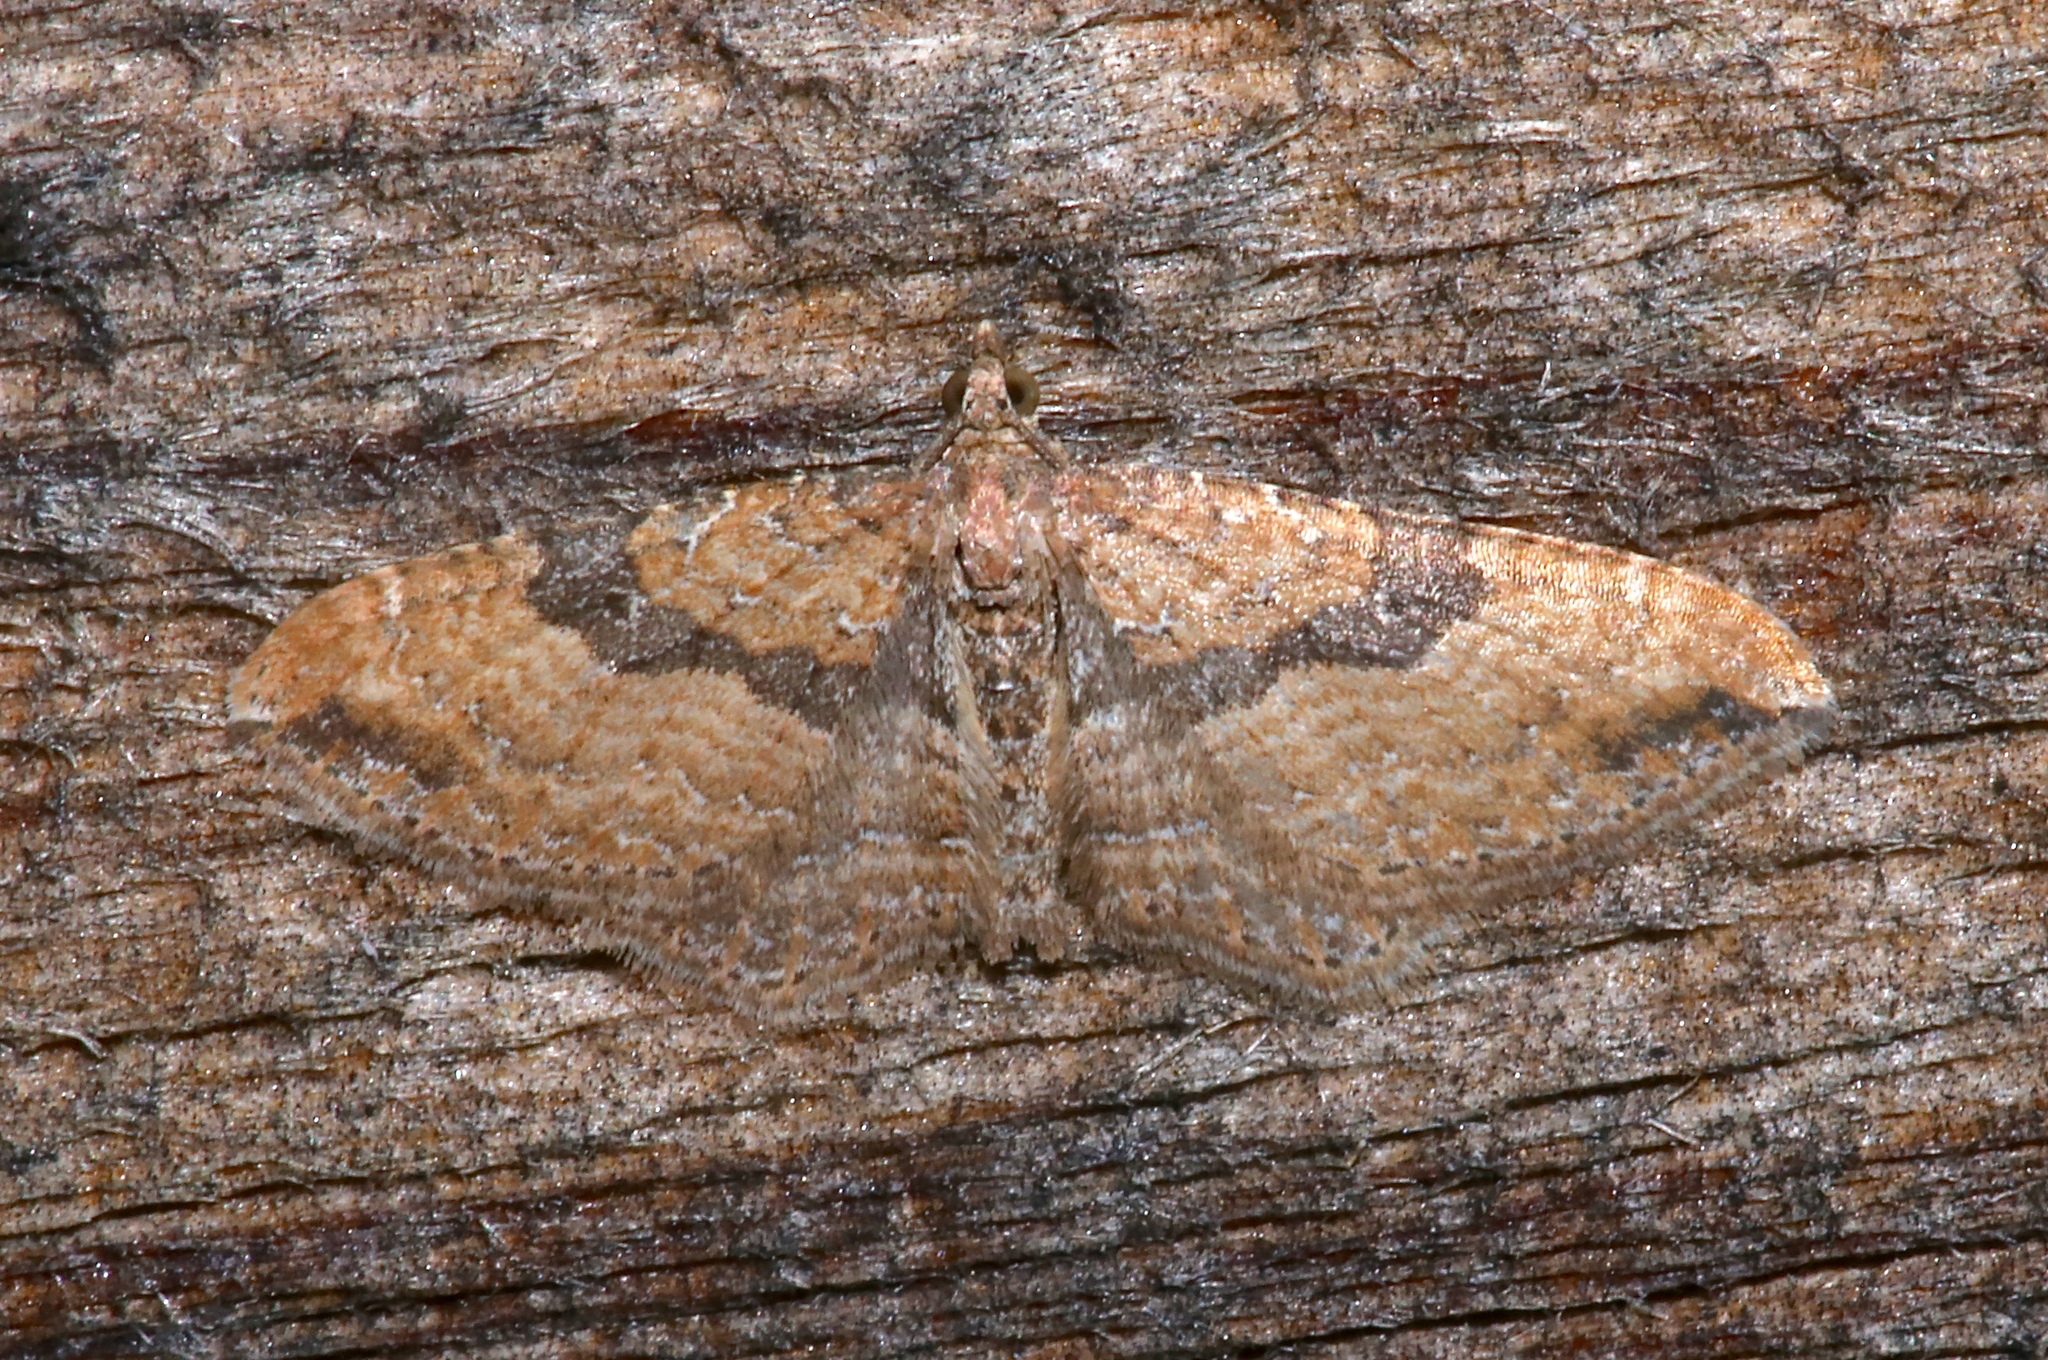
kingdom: Animalia
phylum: Arthropoda
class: Insecta
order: Lepidoptera
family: Geometridae
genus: Orthonama
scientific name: Orthonama obstipata
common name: The gem
